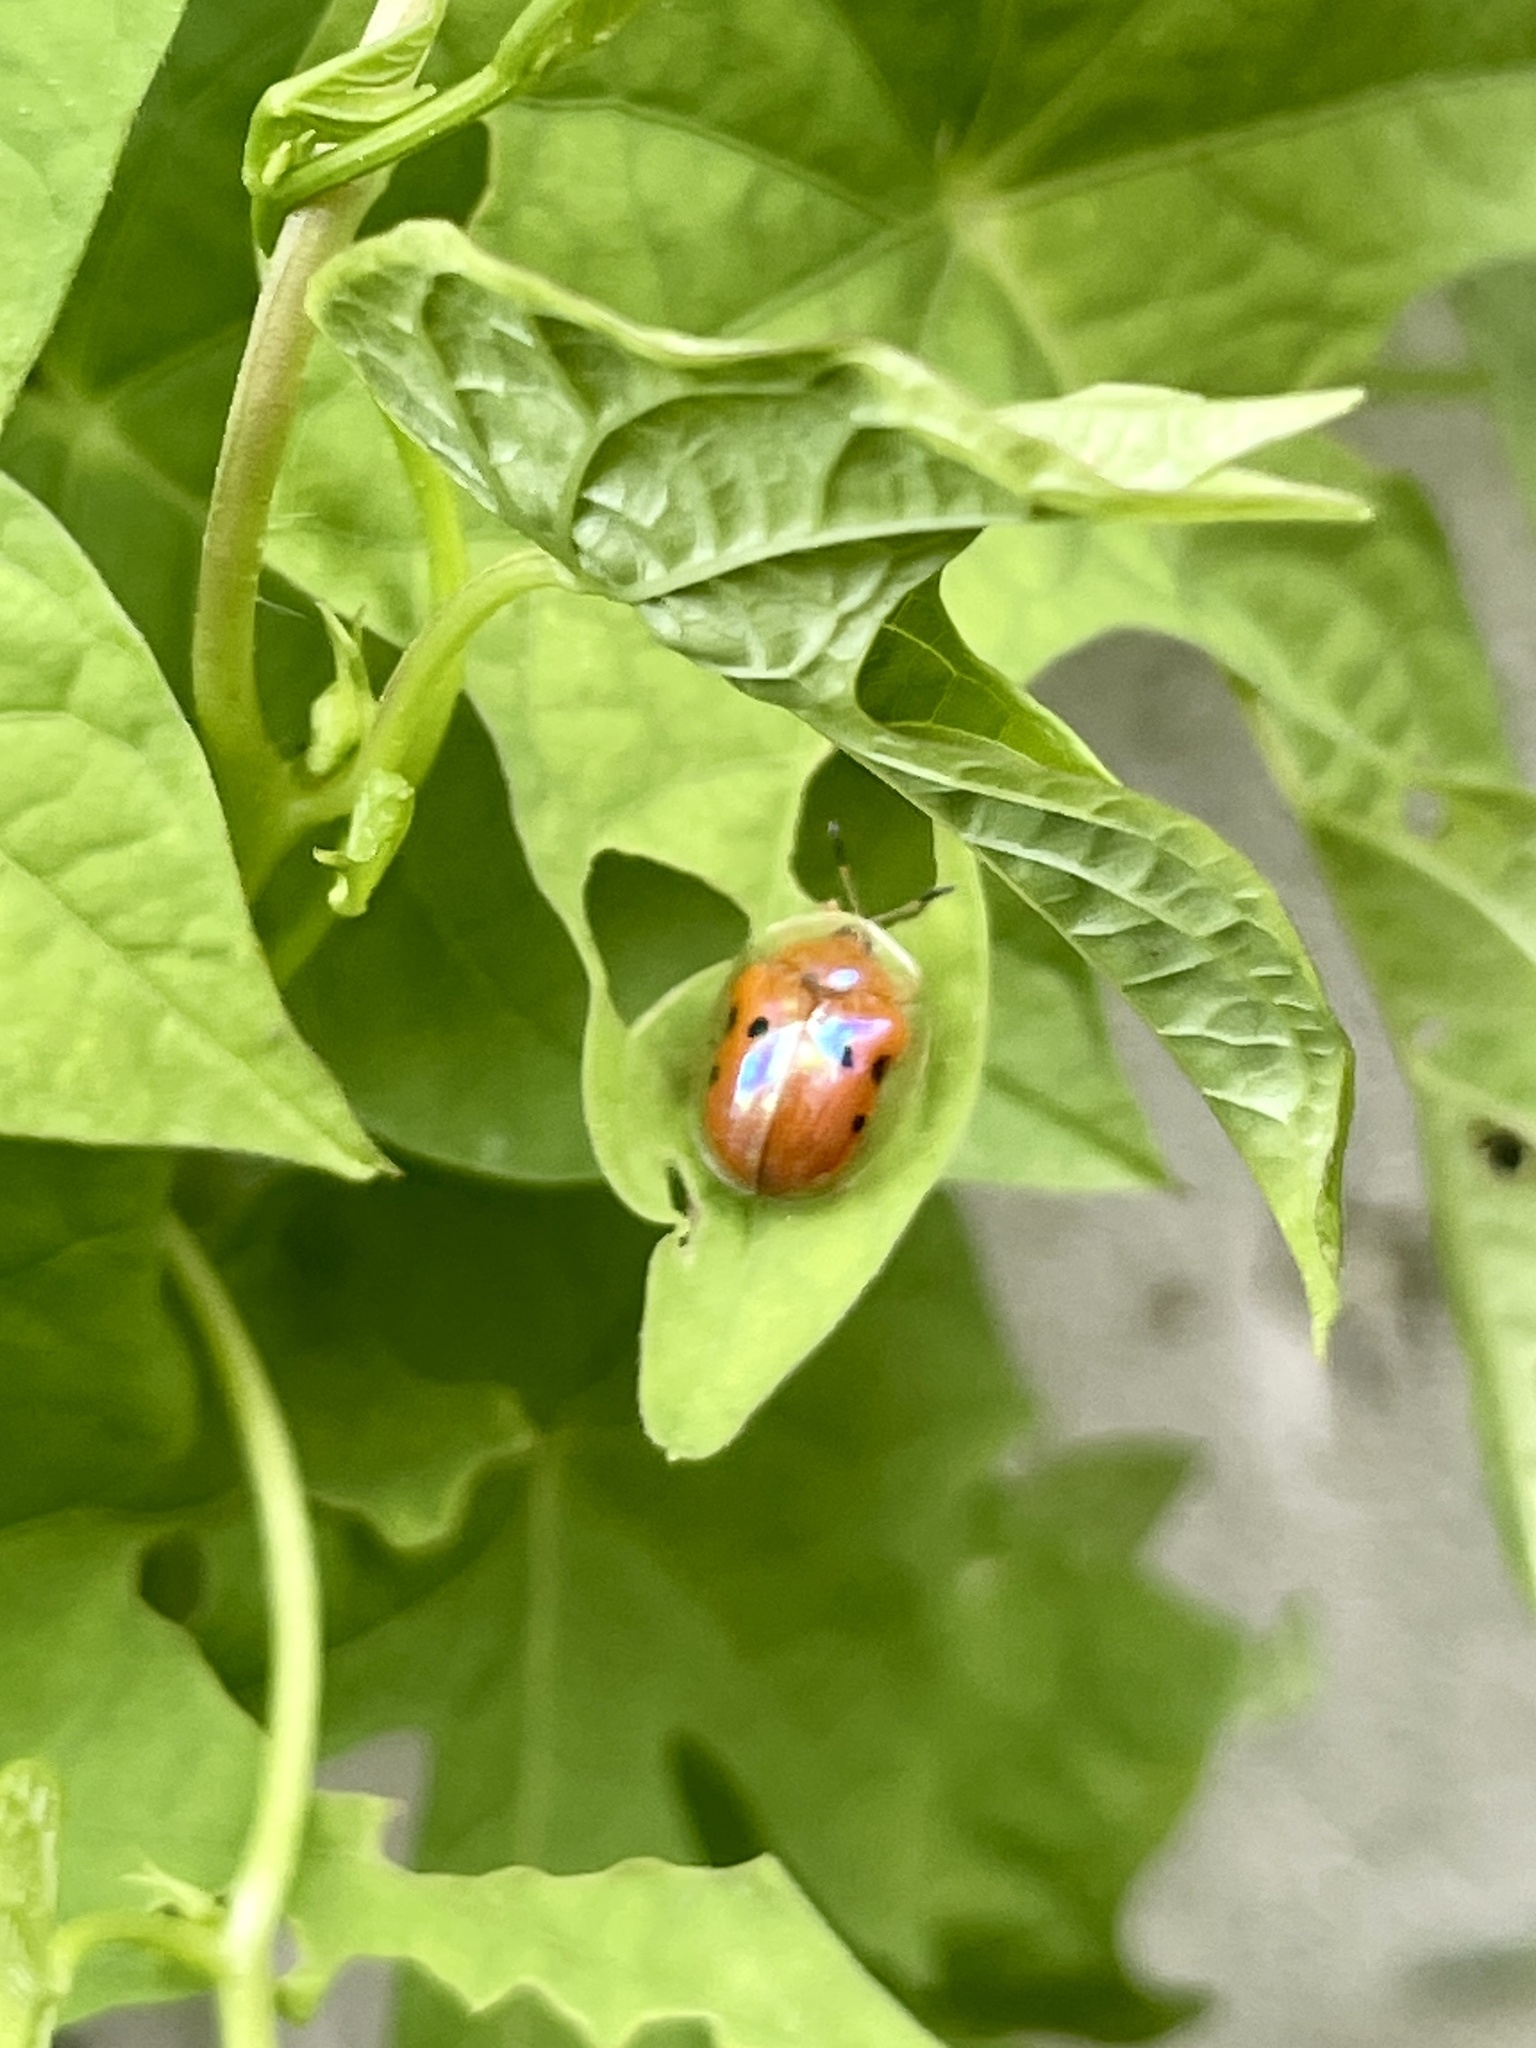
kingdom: Animalia
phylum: Arthropoda
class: Insecta
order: Coleoptera
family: Chrysomelidae
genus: Charidotella
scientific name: Charidotella sexpunctata
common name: Golden tortoise beetle
